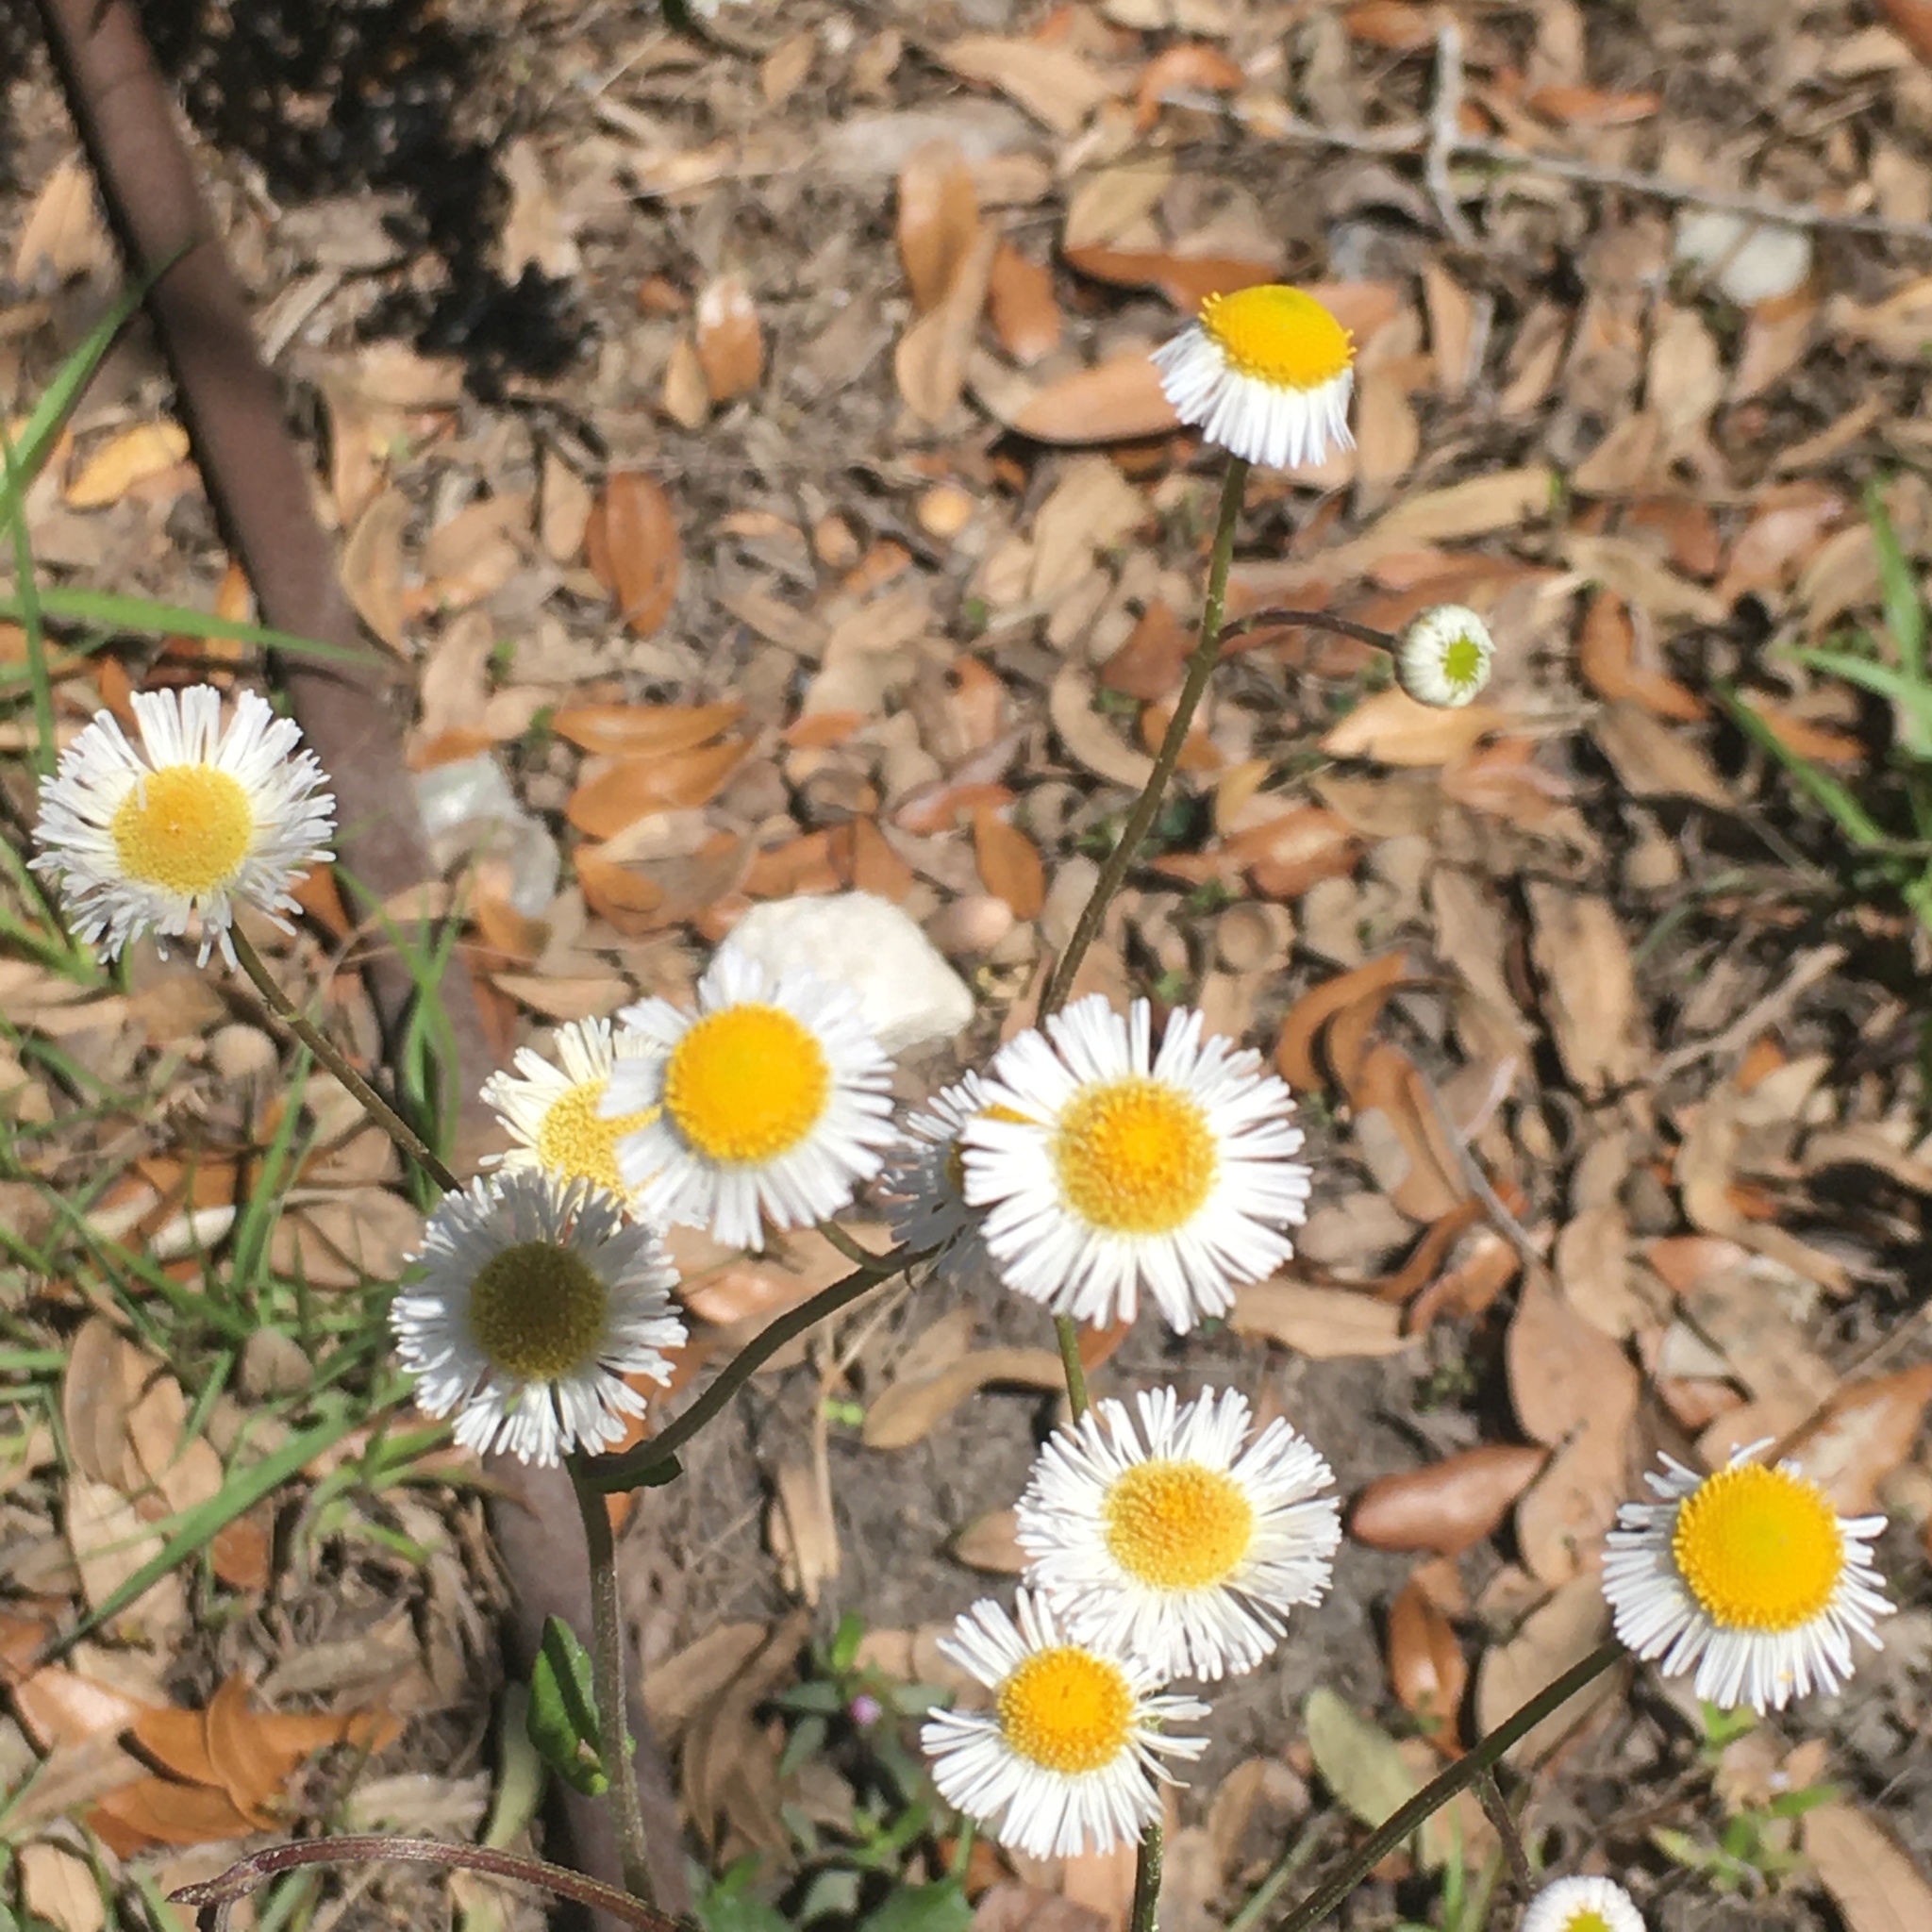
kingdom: Plantae
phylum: Tracheophyta
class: Magnoliopsida
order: Asterales
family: Asteraceae
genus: Erigeron
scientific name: Erigeron quercifolius
